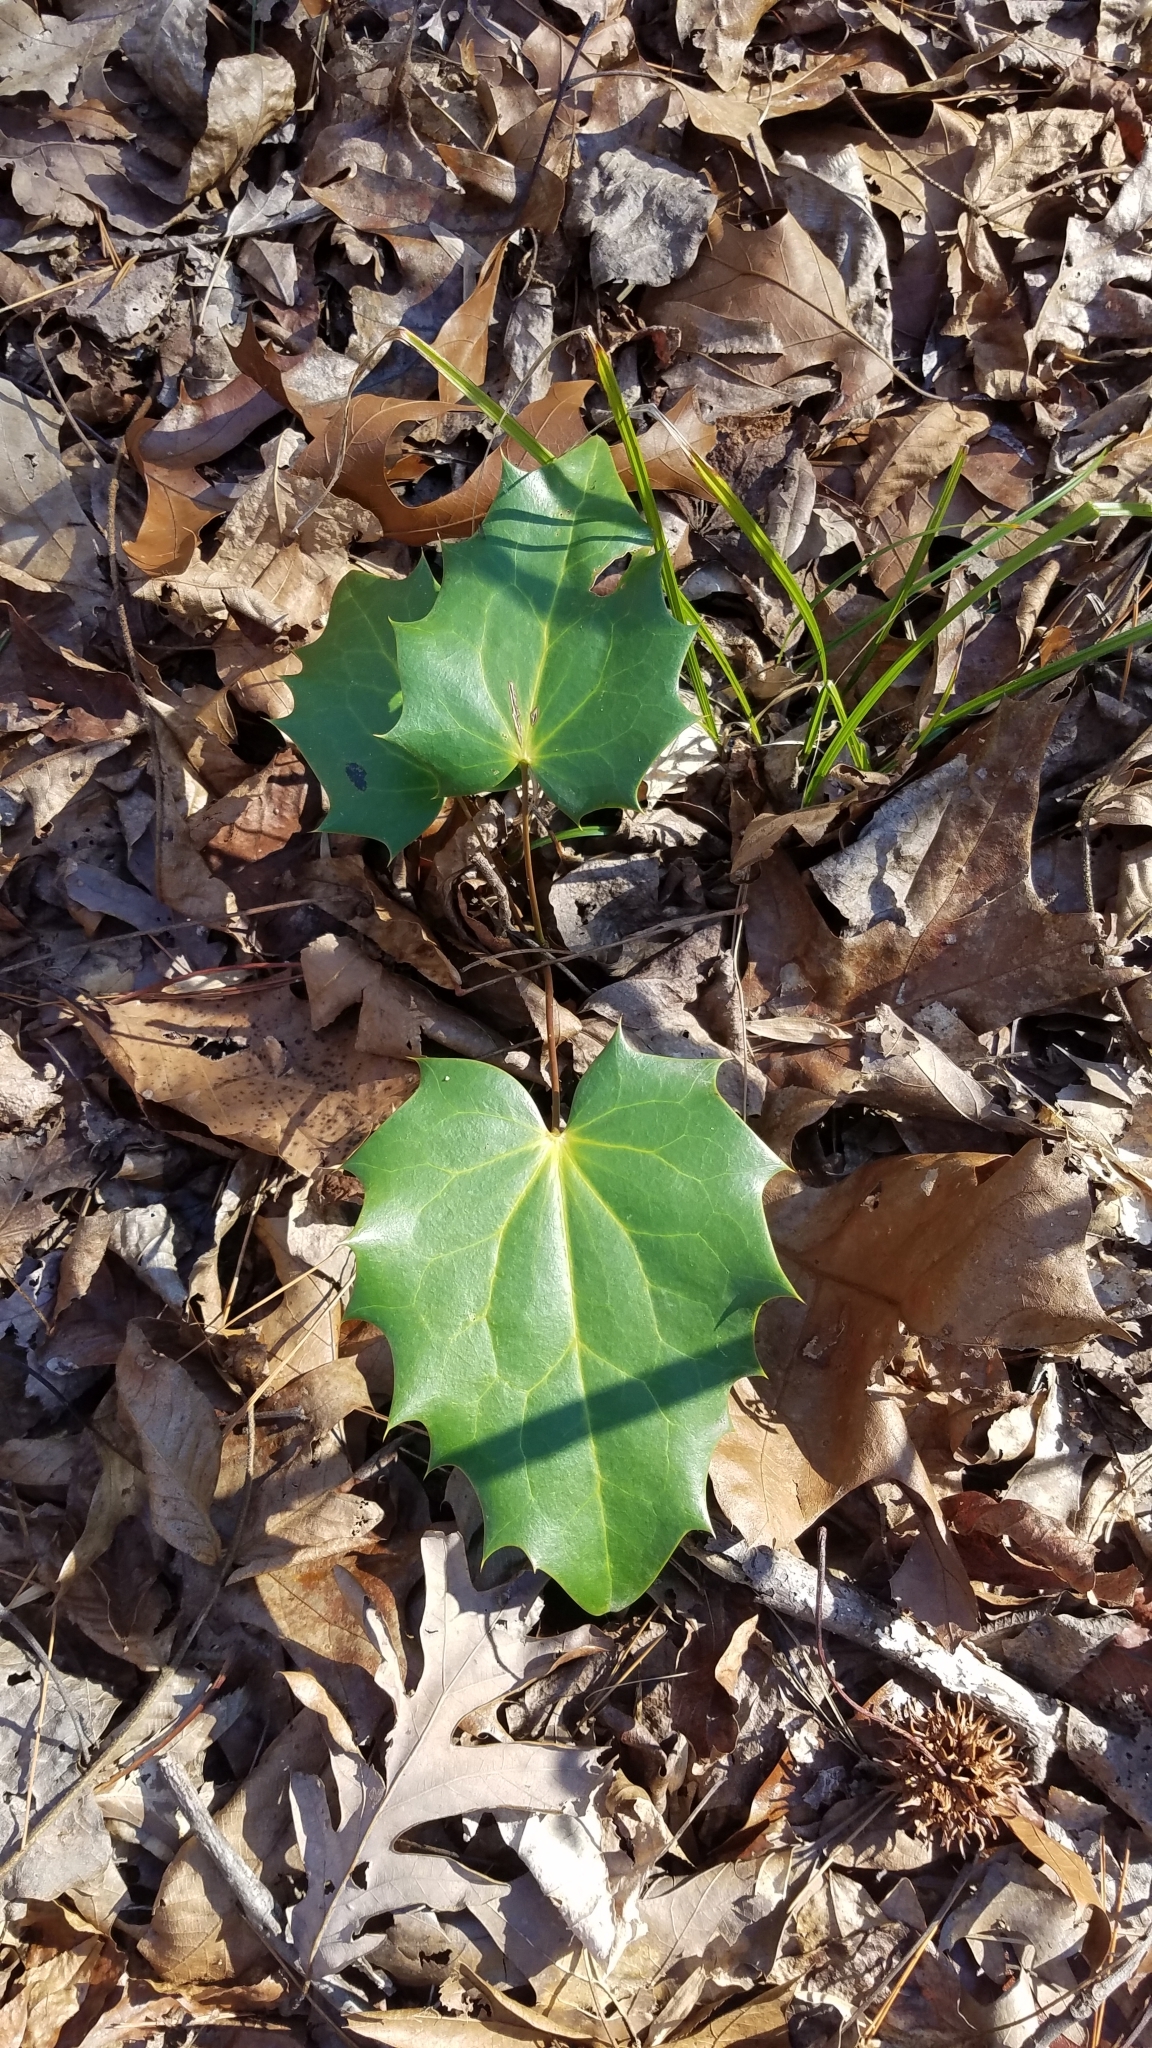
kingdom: Plantae
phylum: Tracheophyta
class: Magnoliopsida
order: Ranunculales
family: Berberidaceae
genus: Mahonia
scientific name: Mahonia bealei
